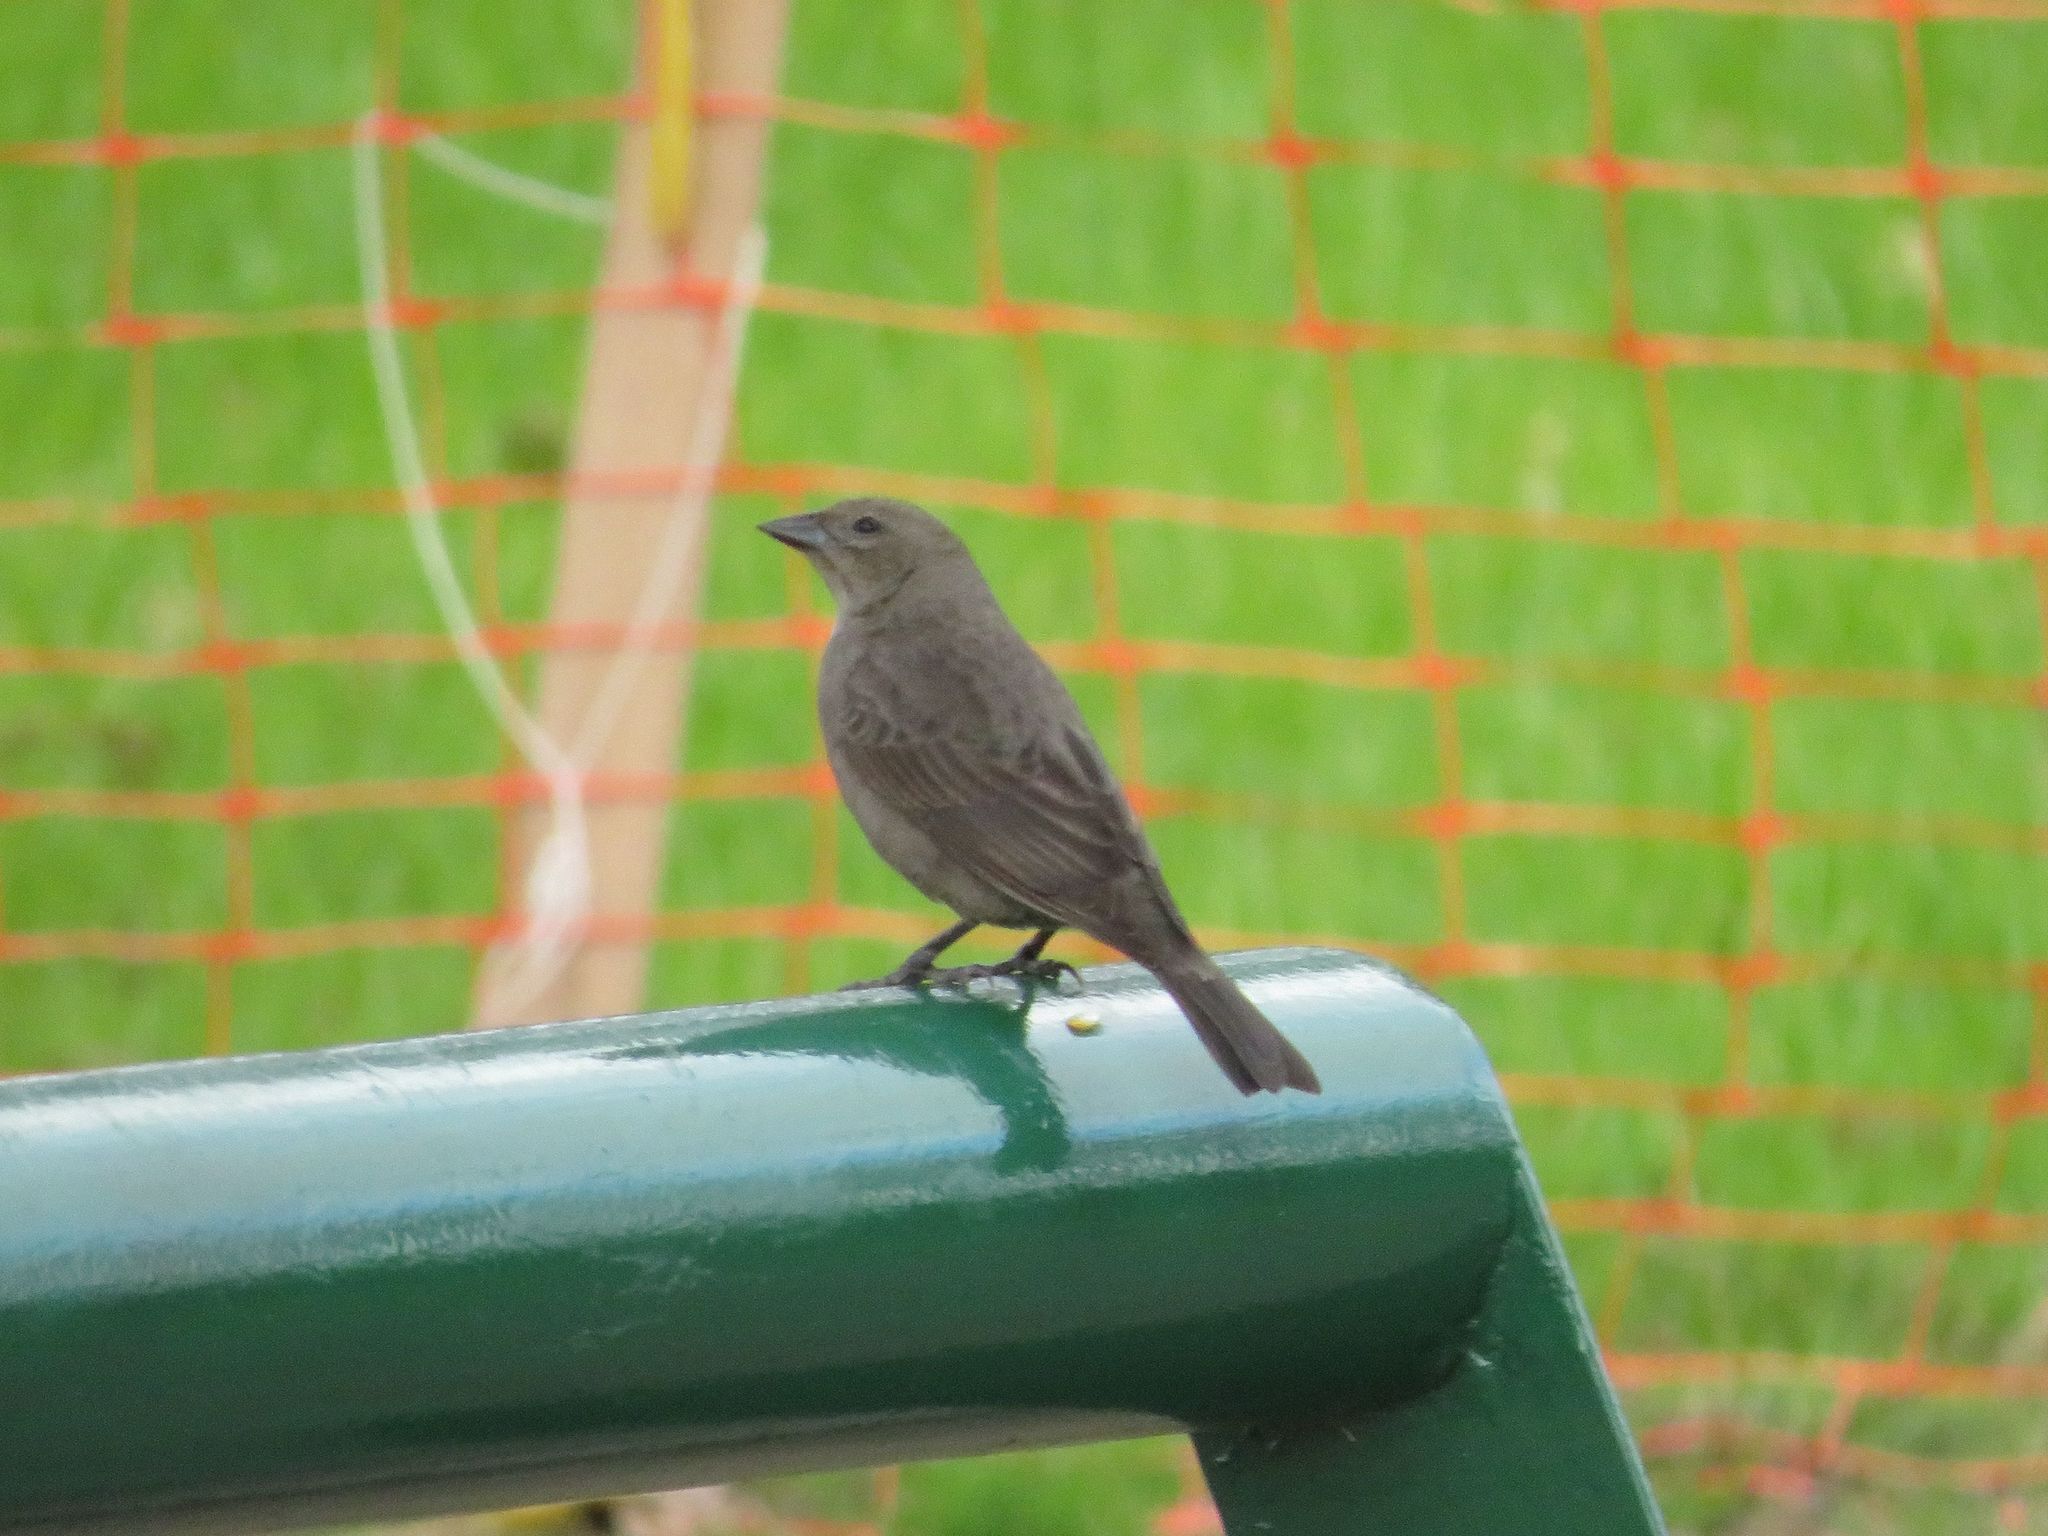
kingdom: Animalia
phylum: Chordata
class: Aves
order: Passeriformes
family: Icteridae
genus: Molothrus
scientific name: Molothrus bonariensis
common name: Shiny cowbird
